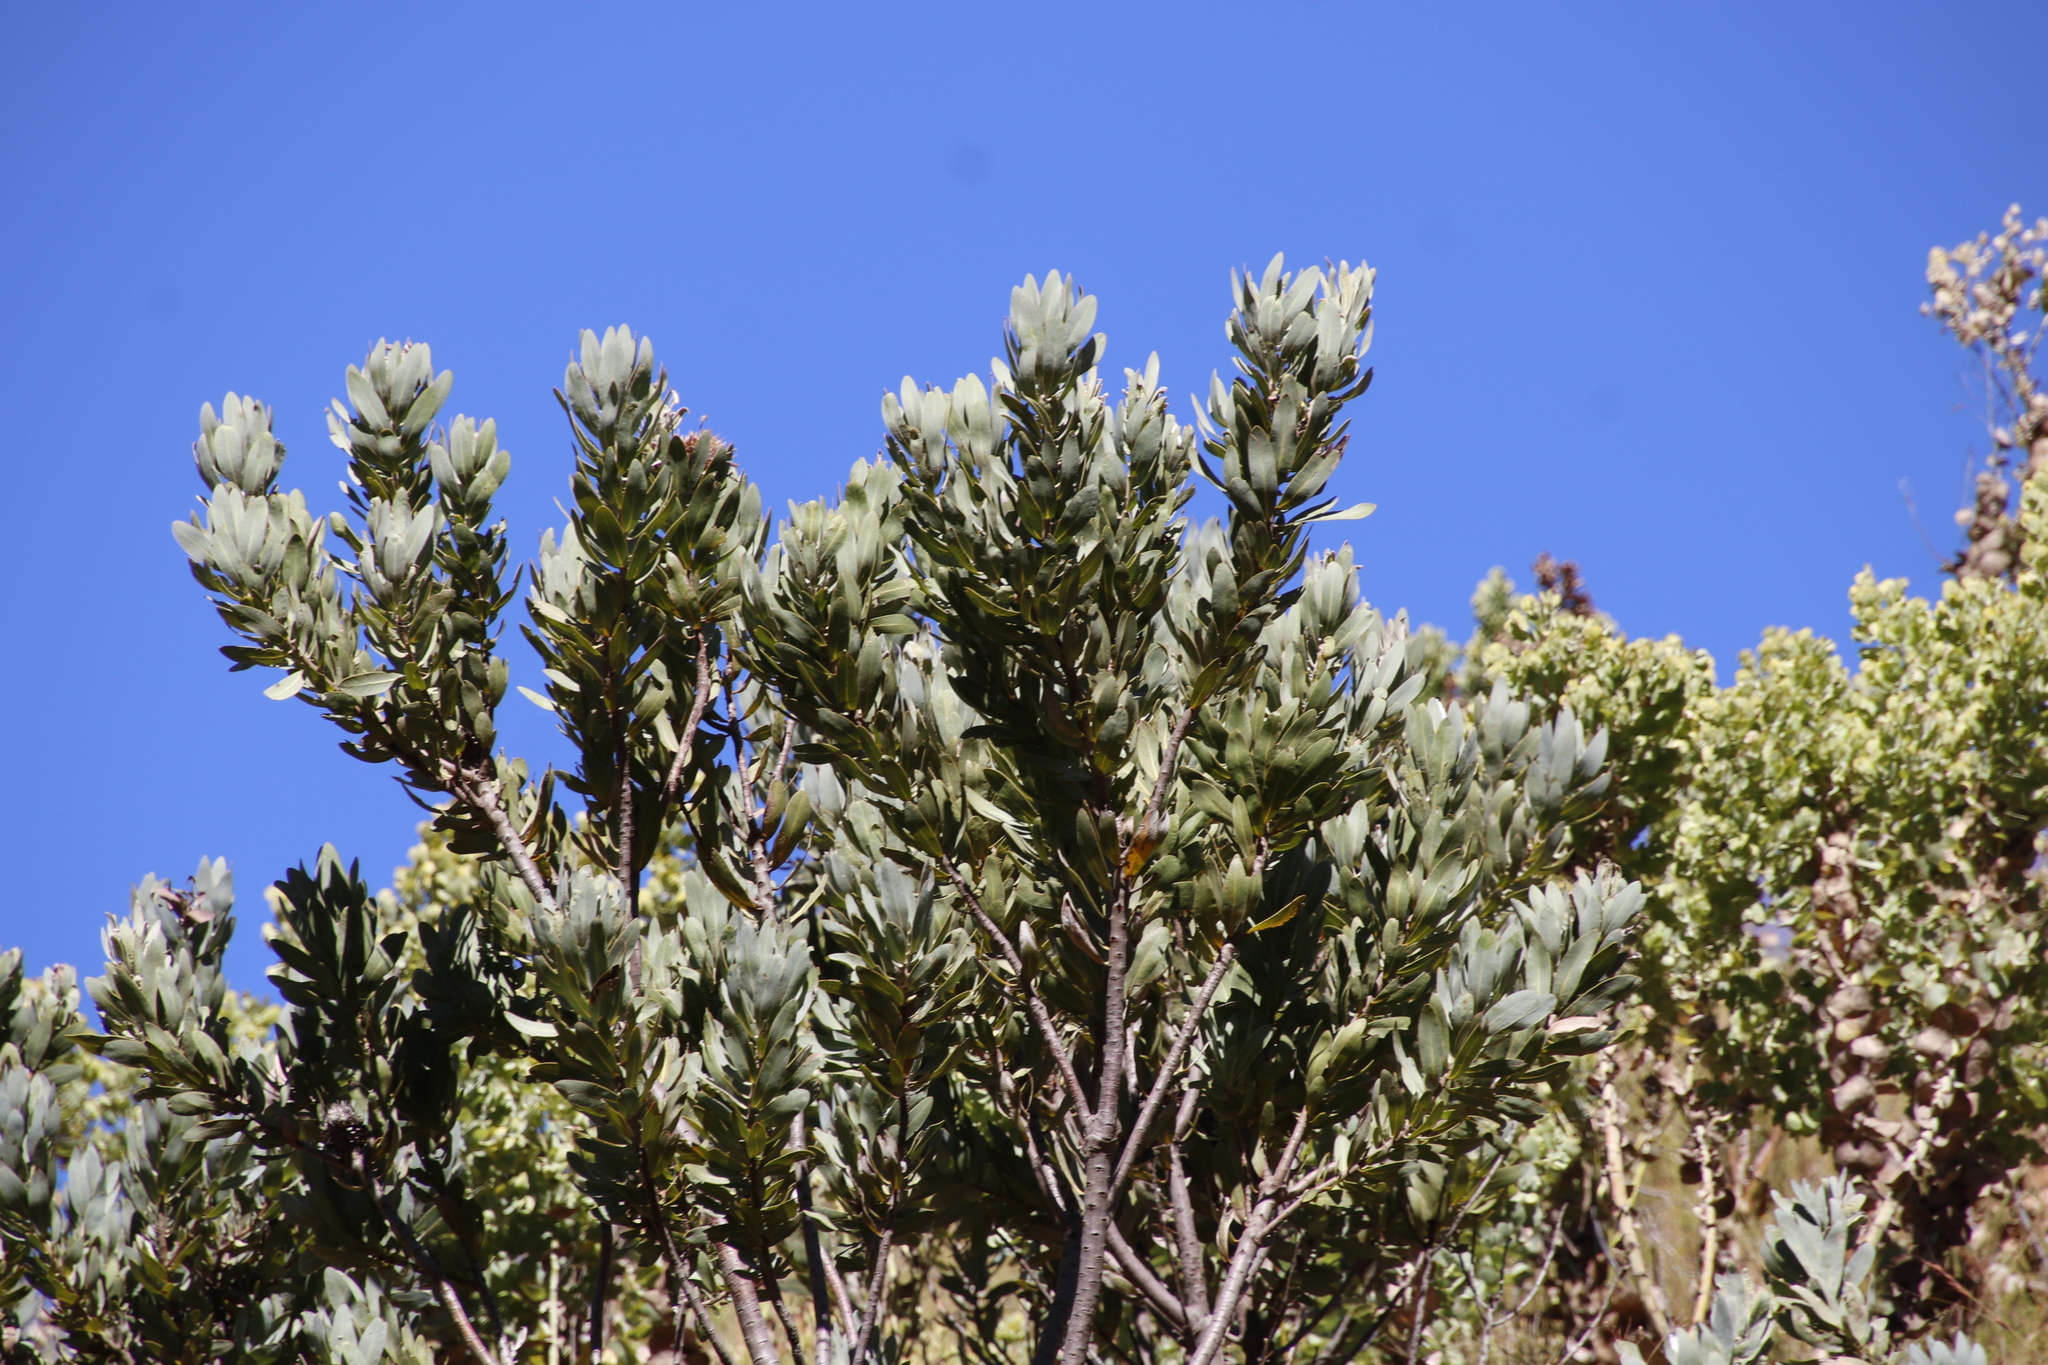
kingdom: Plantae
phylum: Tracheophyta
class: Magnoliopsida
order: Proteales
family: Proteaceae
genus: Protea
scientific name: Protea laurifolia
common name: Grey-leaf sugarbsh
